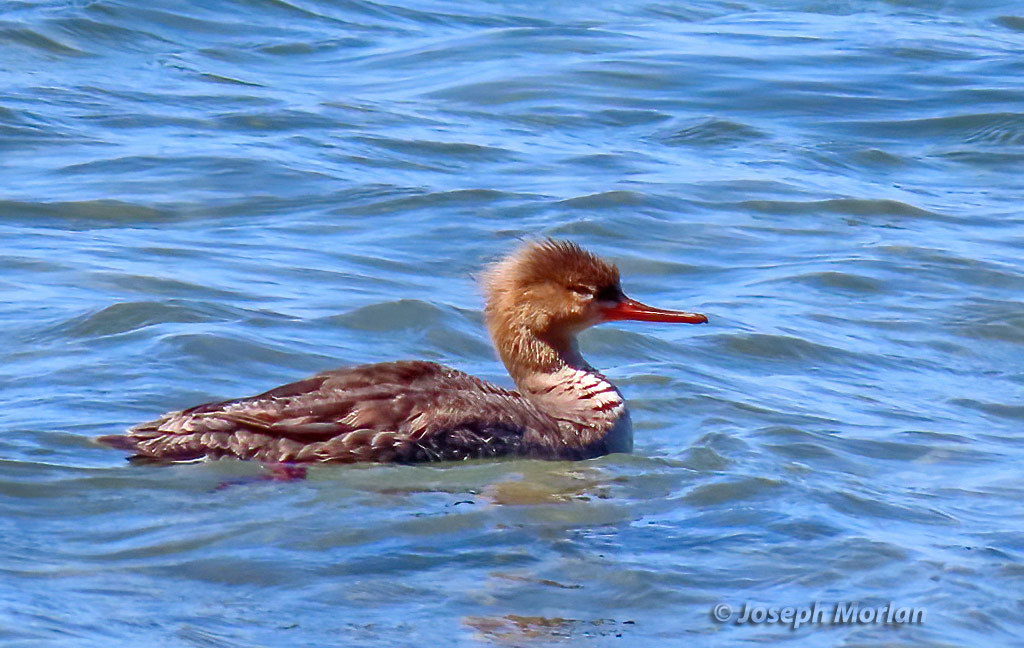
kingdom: Animalia
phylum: Chordata
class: Aves
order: Anseriformes
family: Anatidae
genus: Mergus
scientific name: Mergus serrator
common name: Red-breasted merganser
